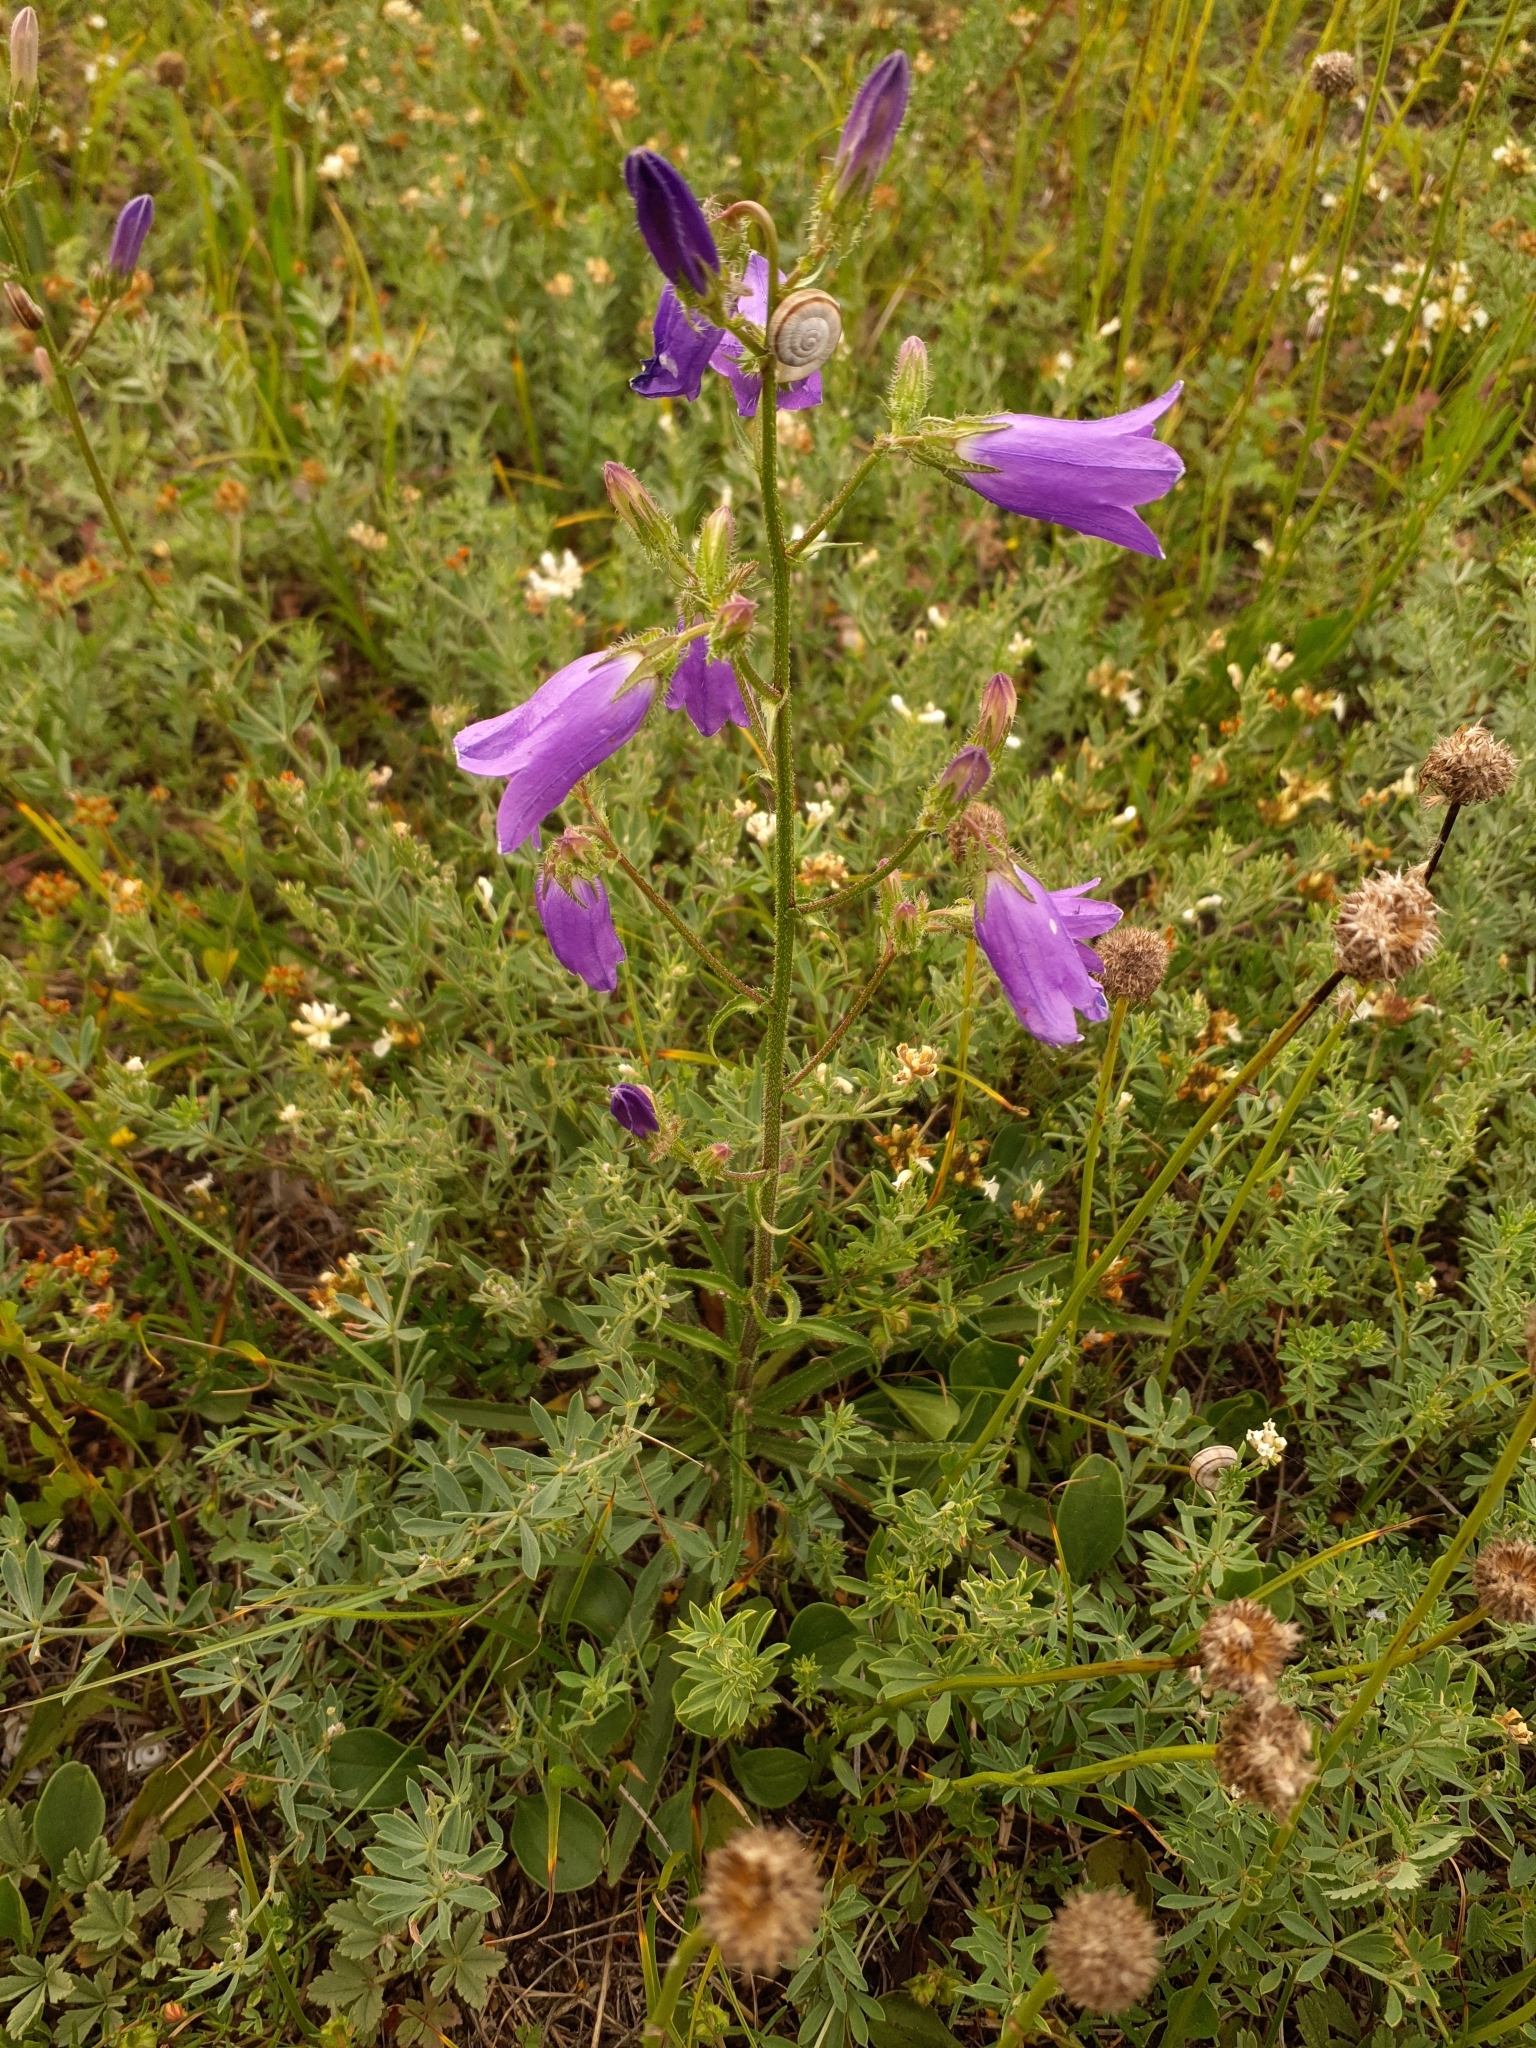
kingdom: Plantae
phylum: Tracheophyta
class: Magnoliopsida
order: Asterales
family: Campanulaceae
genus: Campanula
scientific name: Campanula sibirica
